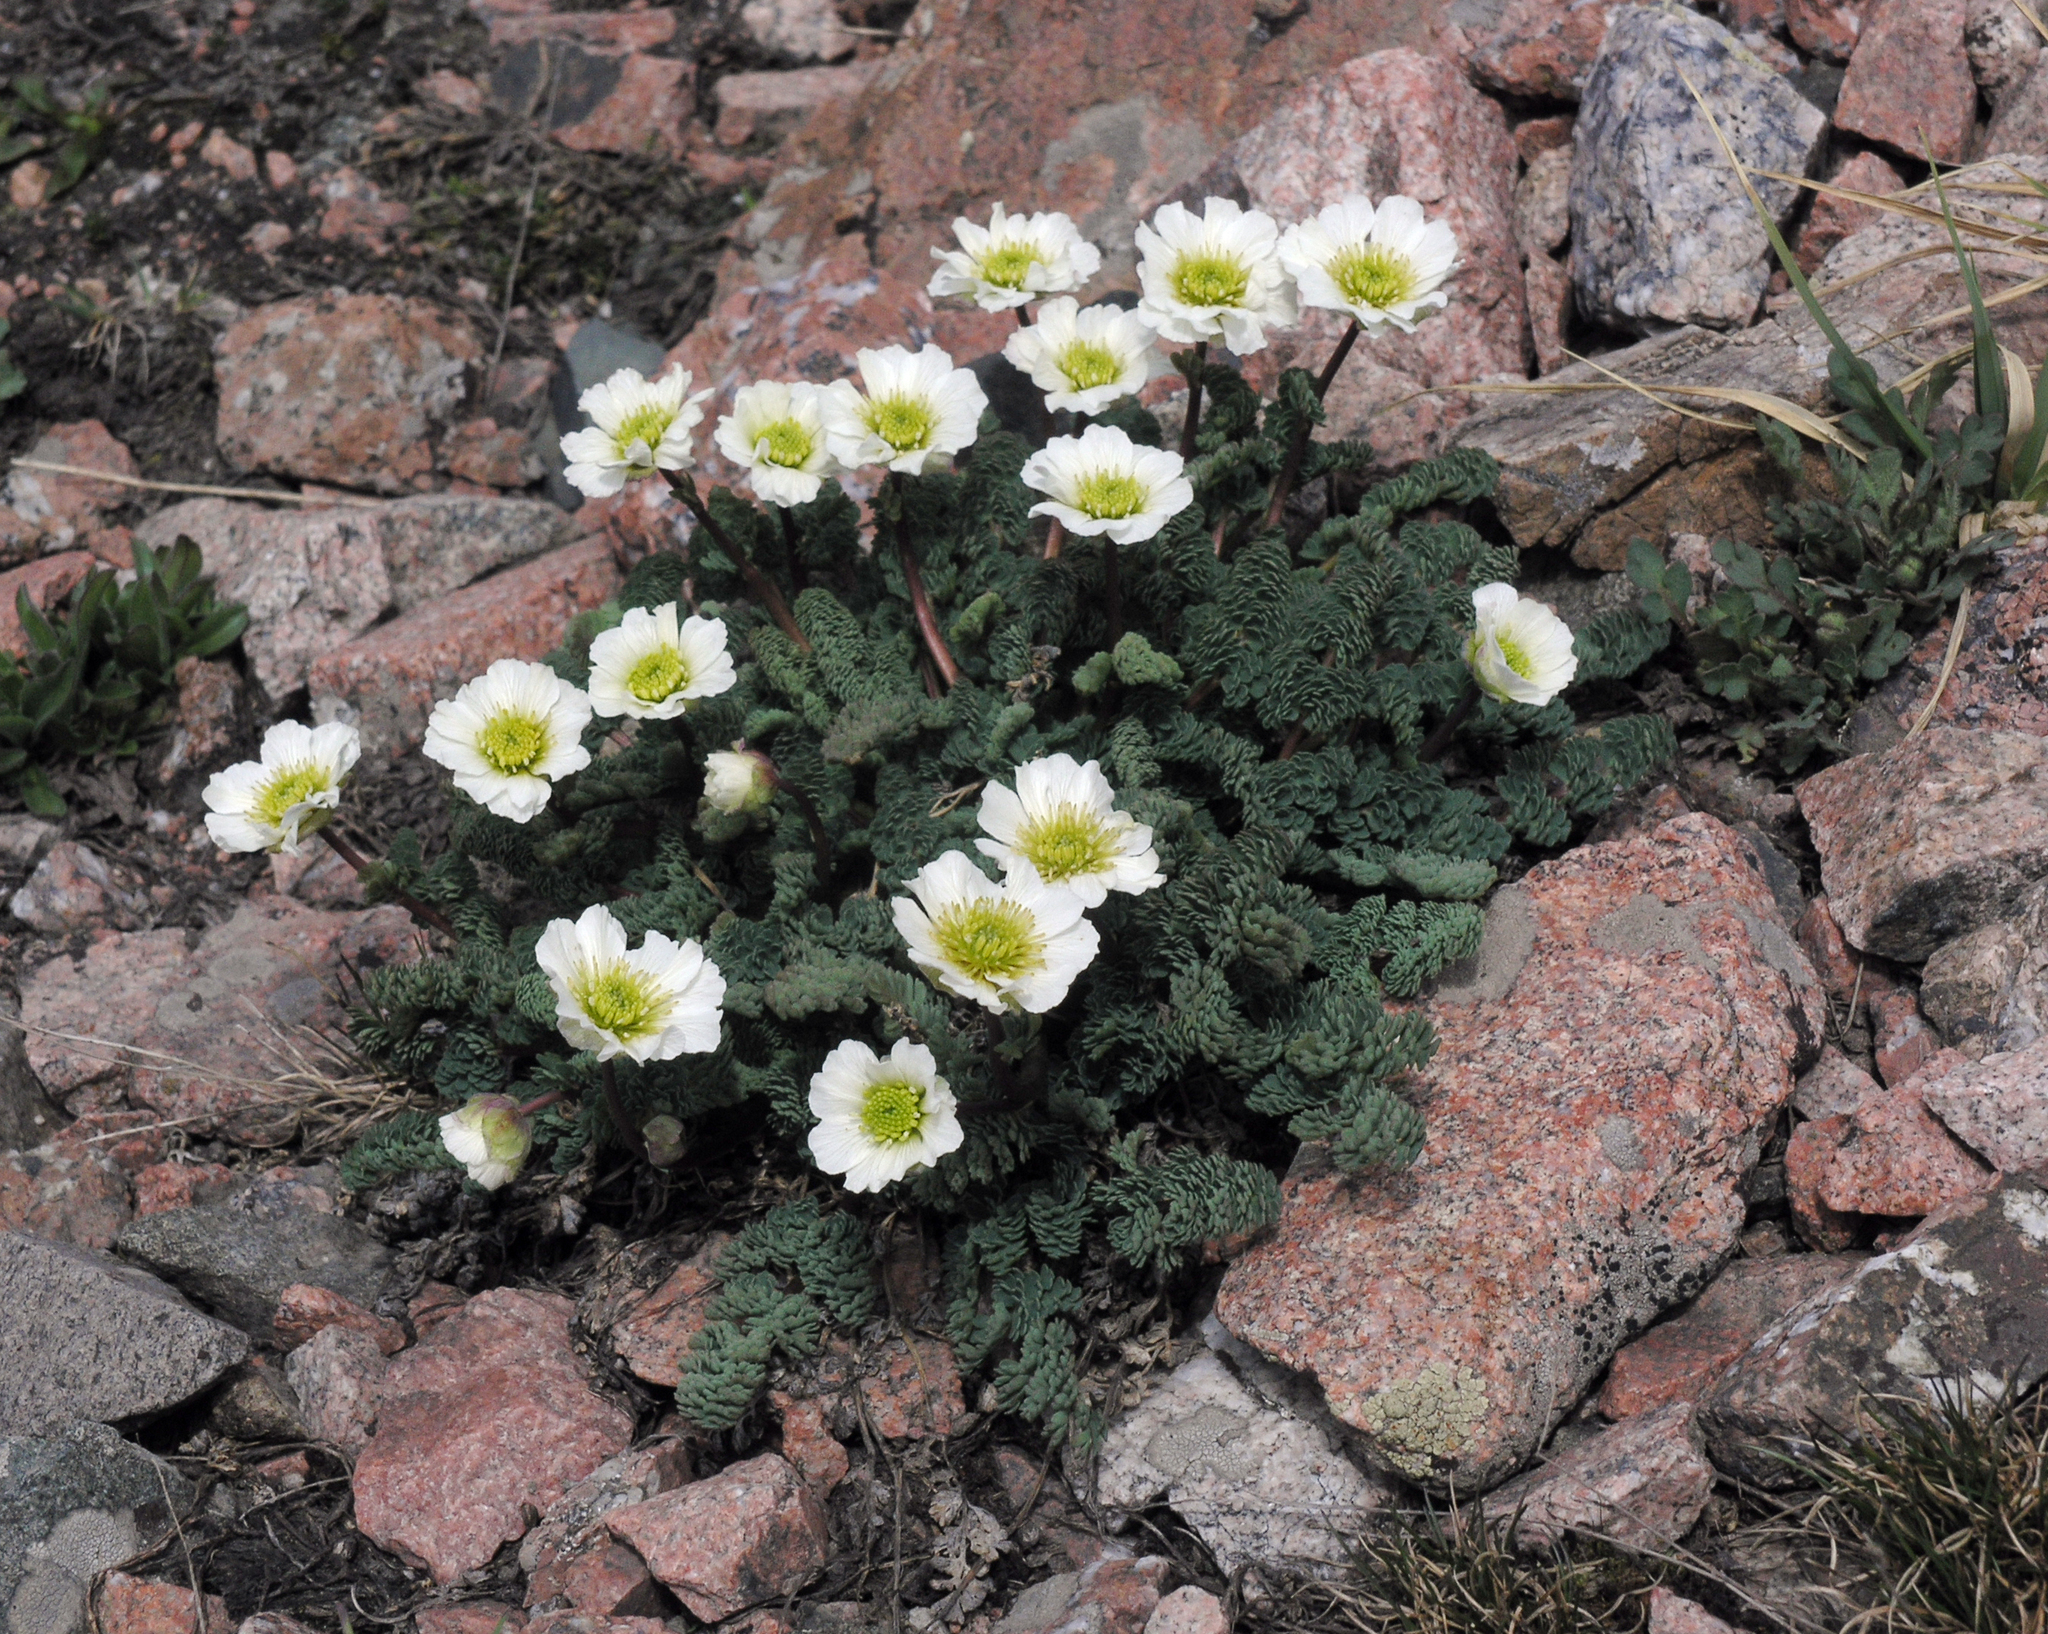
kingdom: Plantae
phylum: Tracheophyta
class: Magnoliopsida
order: Ranunculales
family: Ranunculaceae
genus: Callianthemum
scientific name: Callianthemum alatavicum
